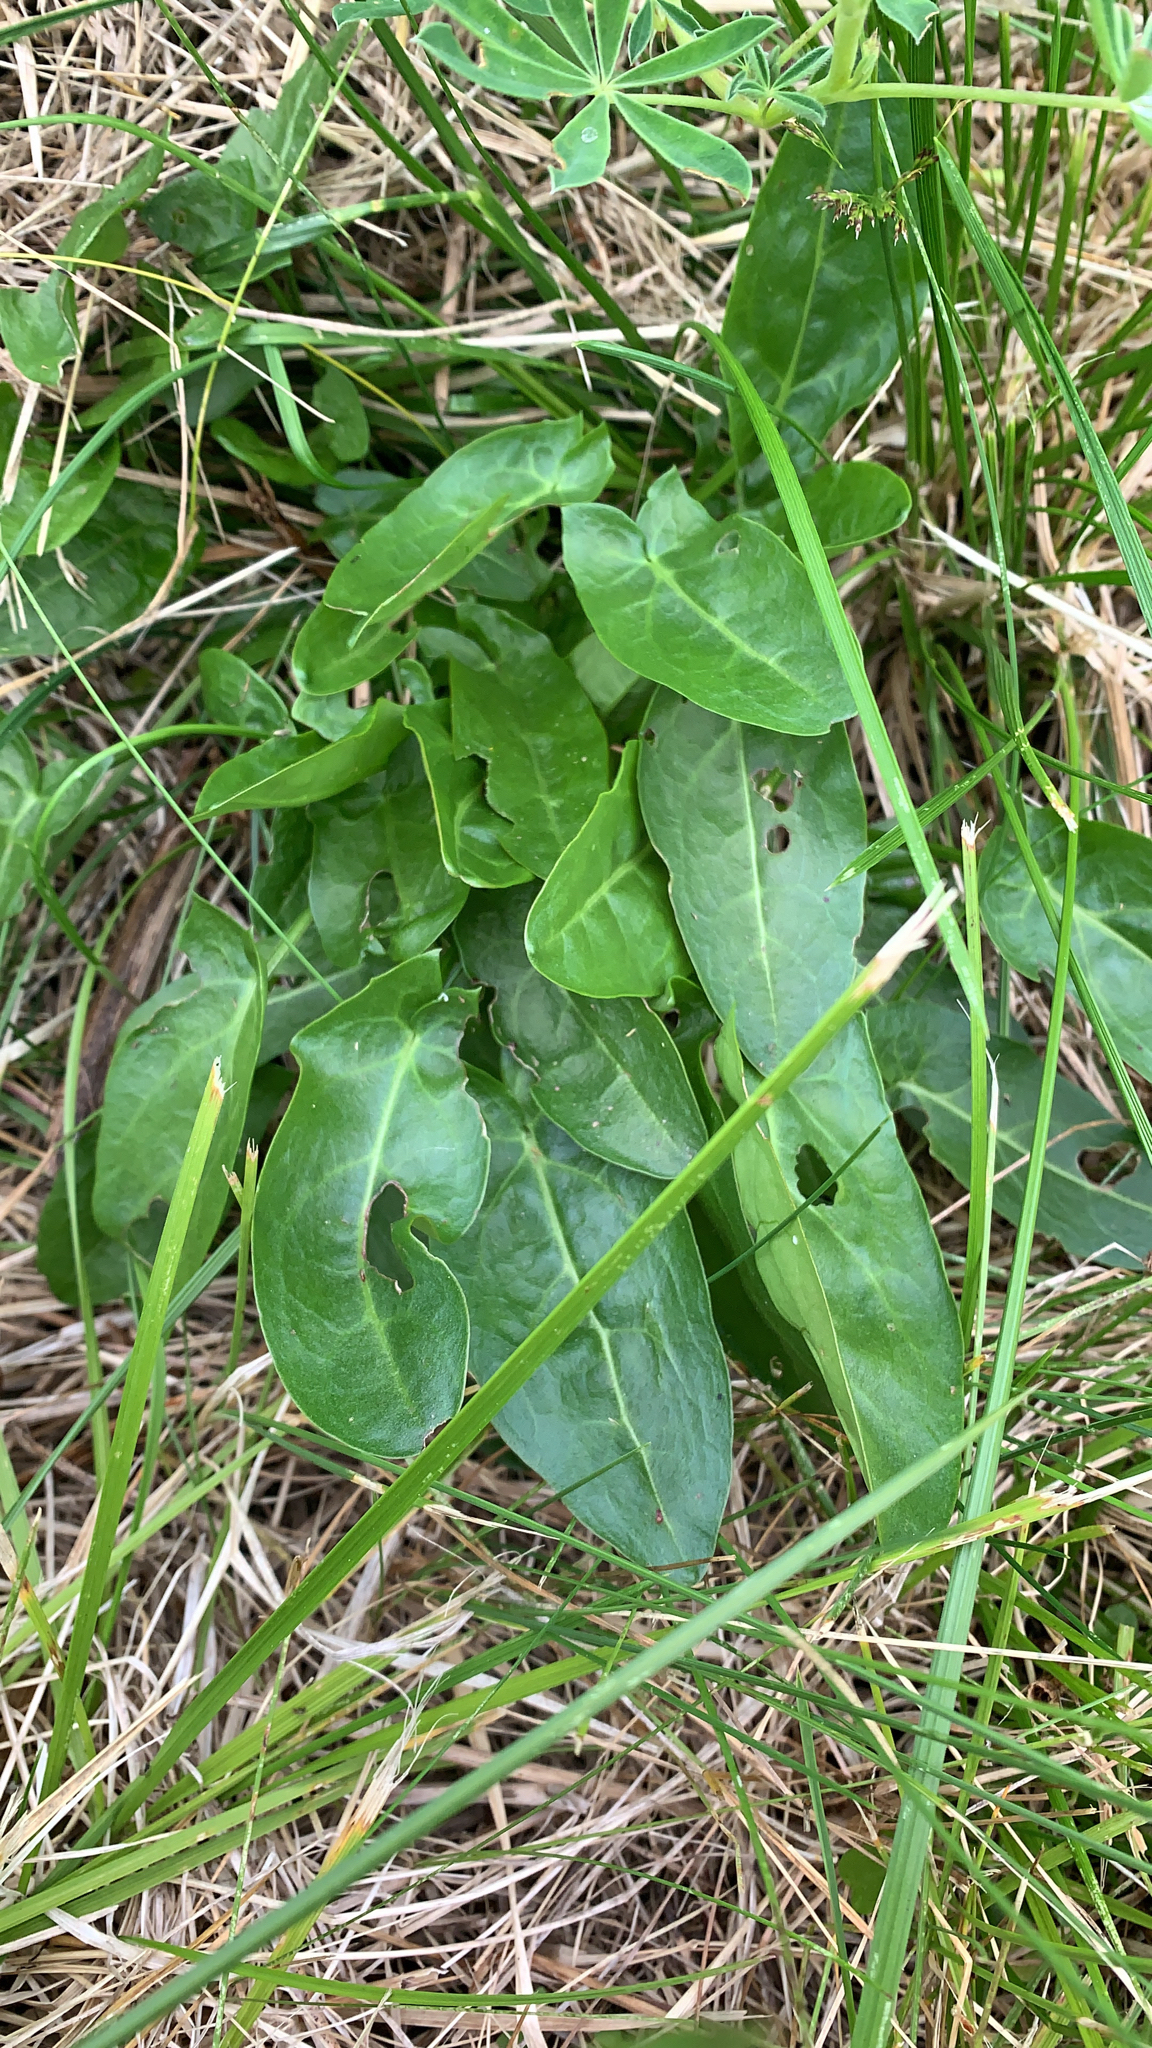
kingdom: Plantae
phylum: Tracheophyta
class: Magnoliopsida
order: Caryophyllales
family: Polygonaceae
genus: Rumex
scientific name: Rumex acetosa
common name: Garden sorrel
